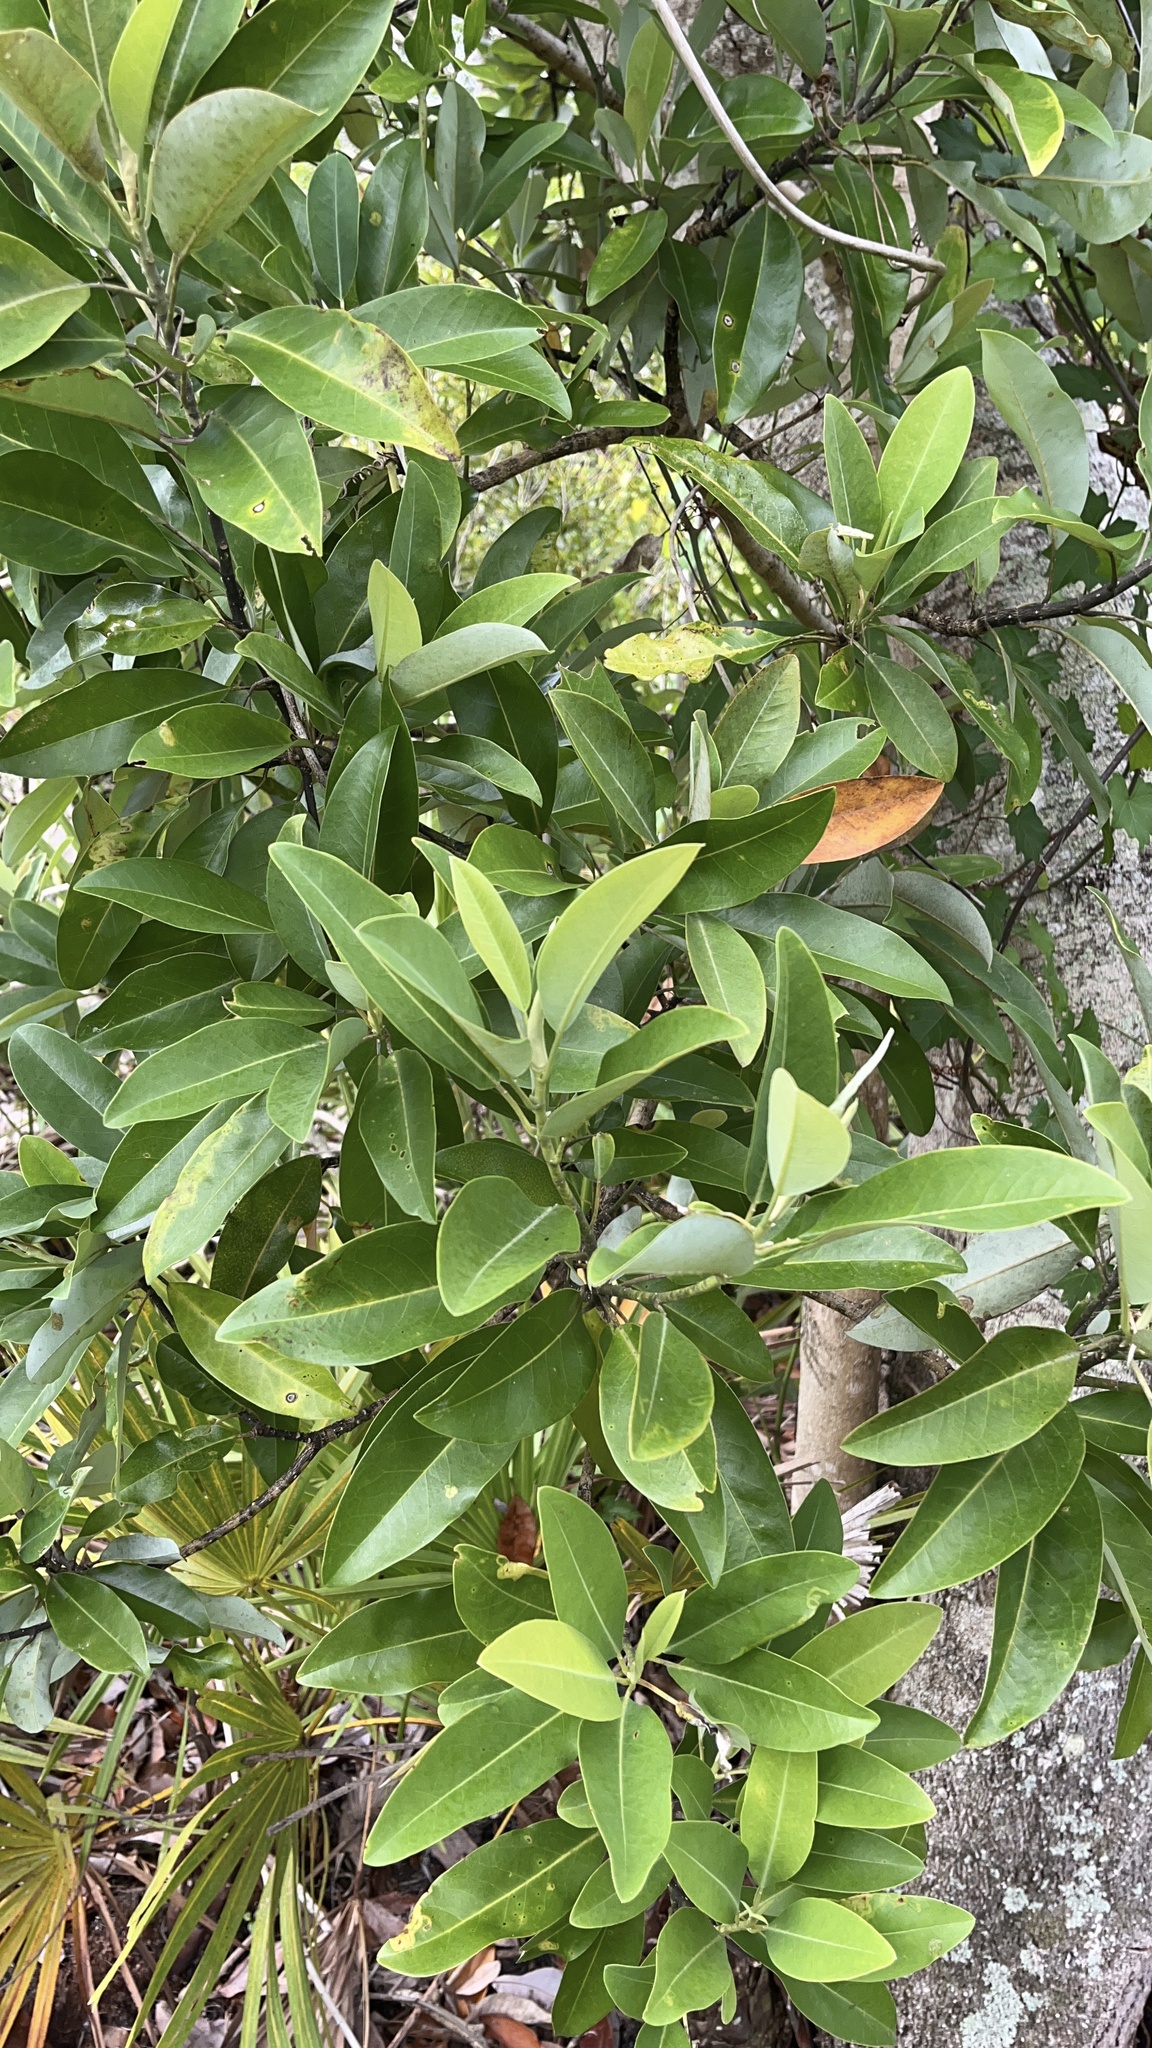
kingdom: Plantae
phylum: Tracheophyta
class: Magnoliopsida
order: Magnoliales
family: Magnoliaceae
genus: Magnolia
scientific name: Magnolia virginiana
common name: Swamp bay
